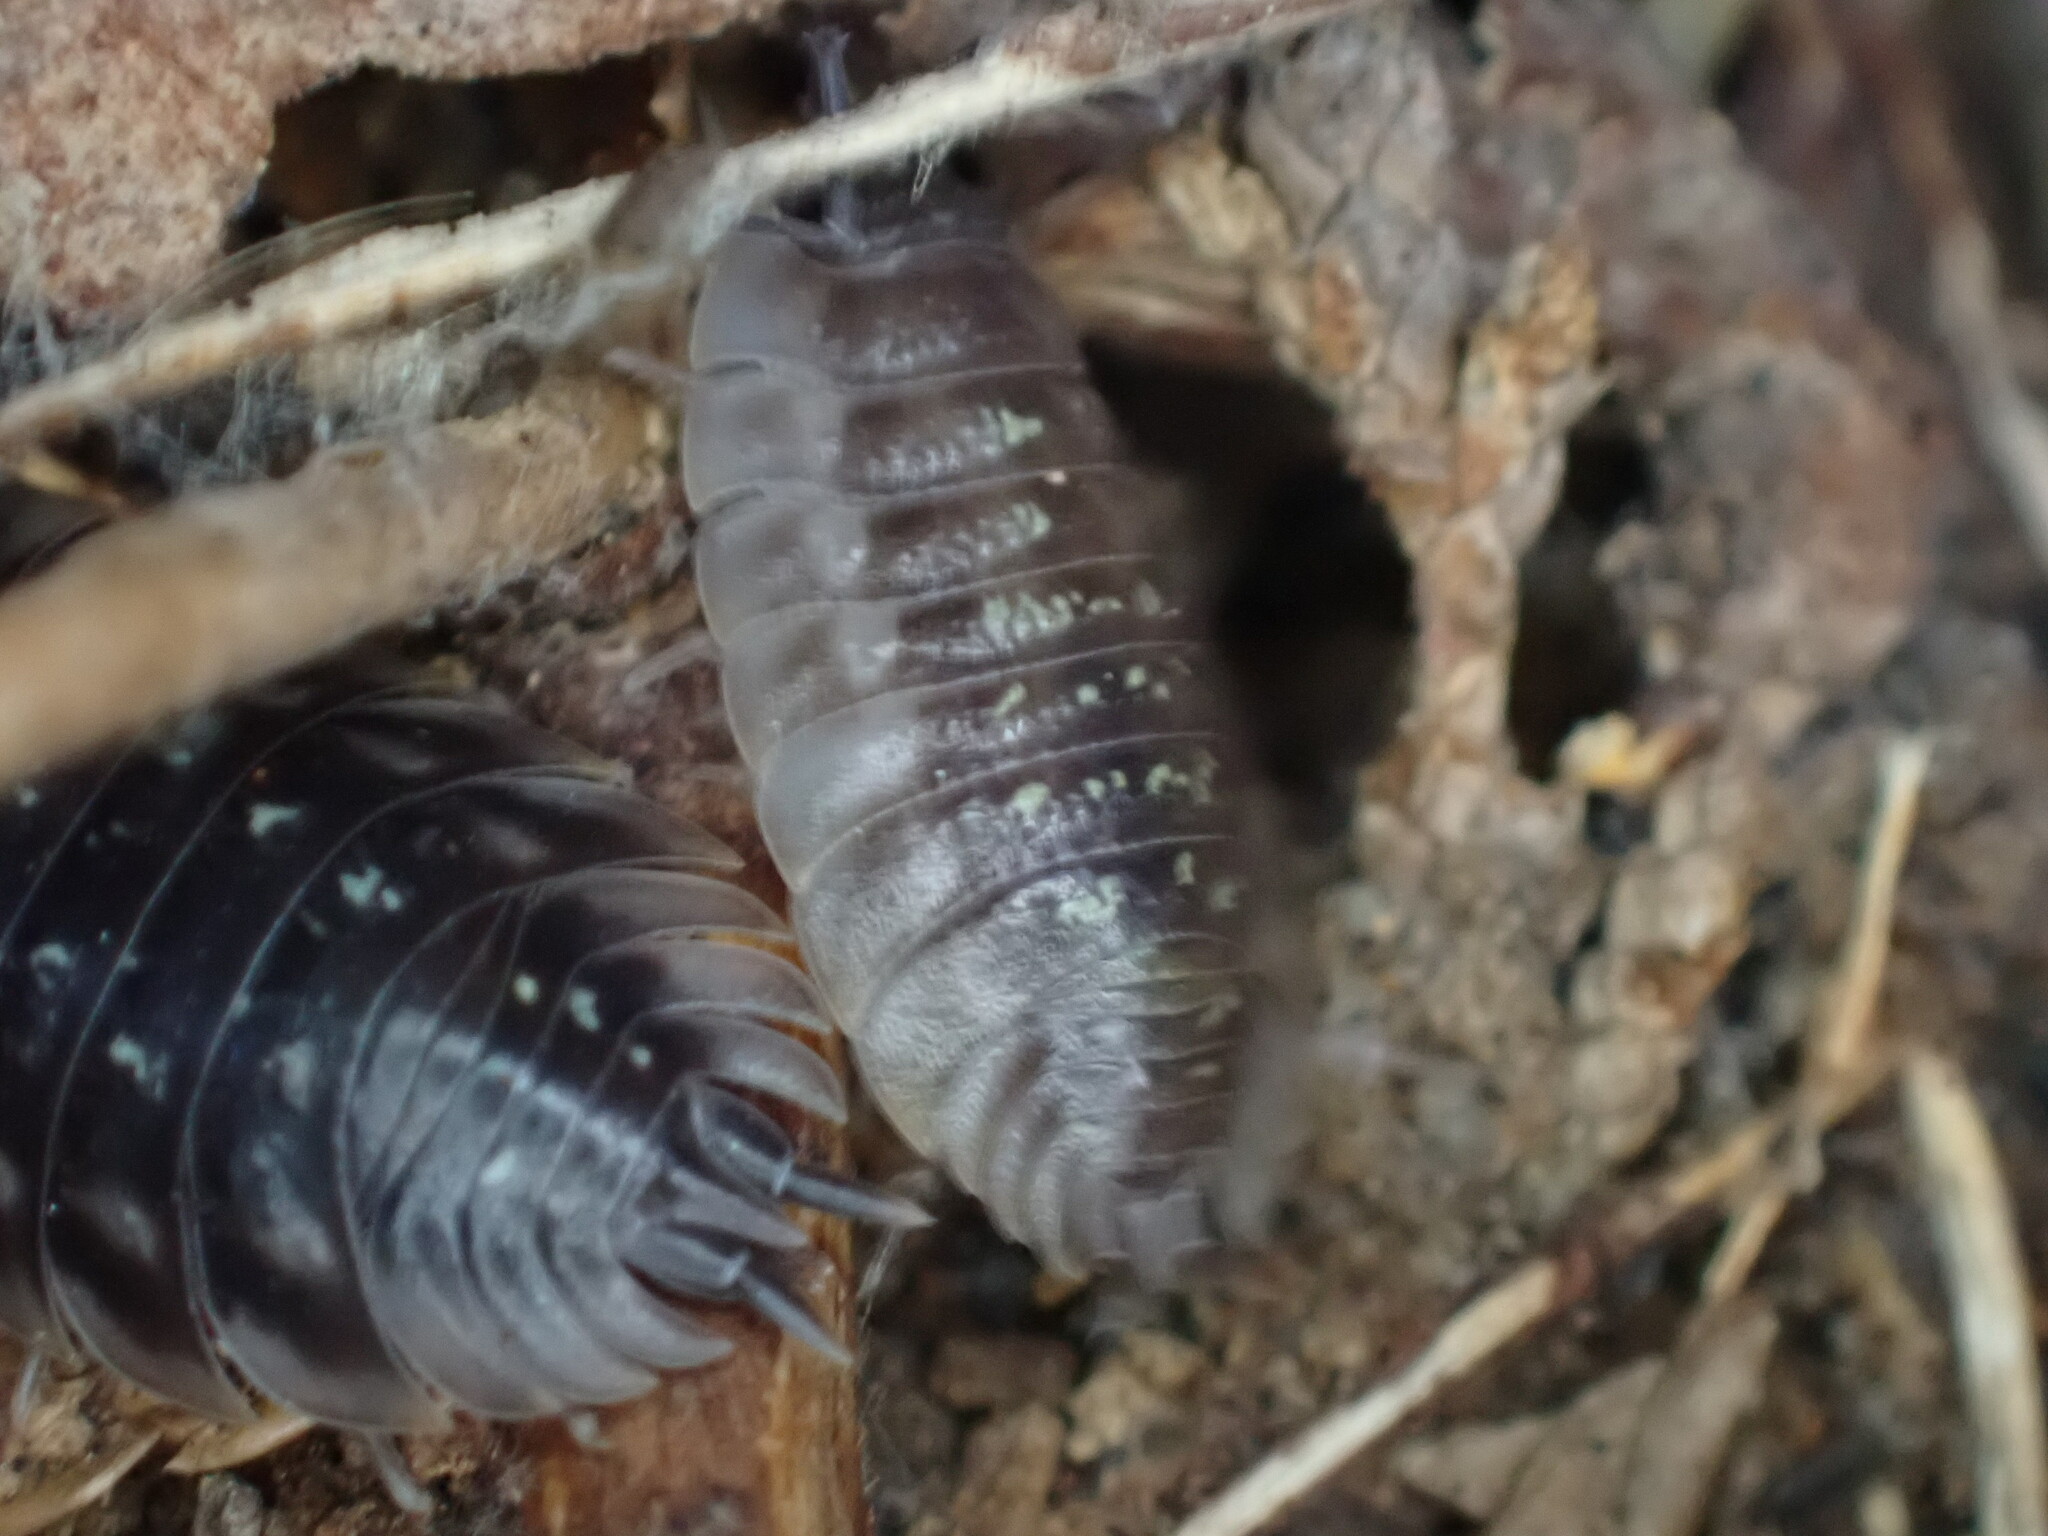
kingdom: Animalia
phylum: Arthropoda
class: Malacostraca
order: Isopoda
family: Oniscidae
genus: Oniscus
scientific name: Oniscus asellus
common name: Common shiny woodlouse
